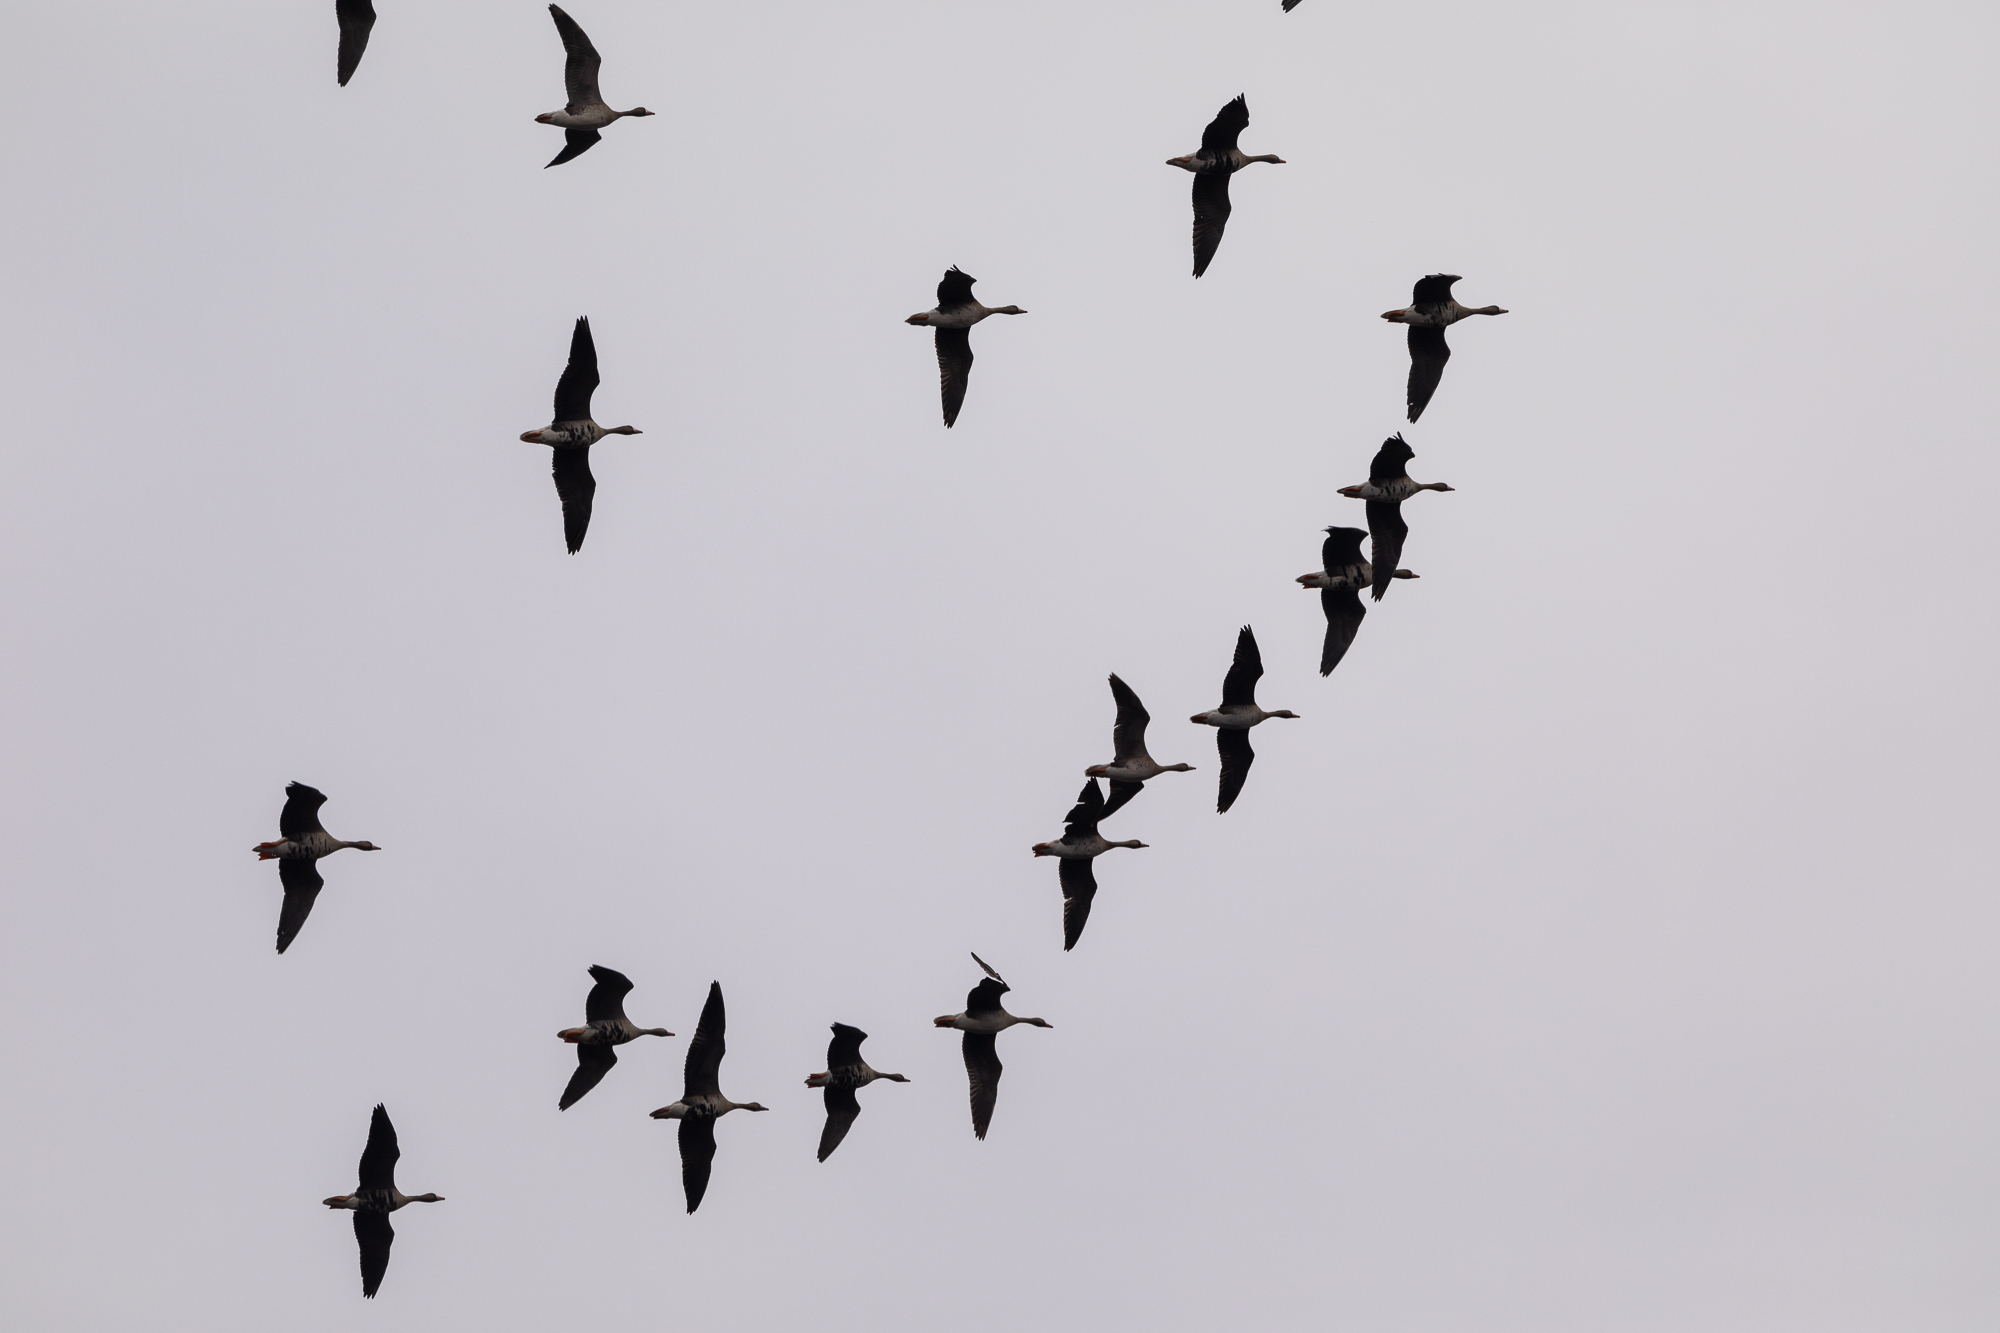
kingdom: Animalia
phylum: Chordata
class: Aves
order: Anseriformes
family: Anatidae
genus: Anser
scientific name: Anser albifrons
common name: Greater white-fronted goose
